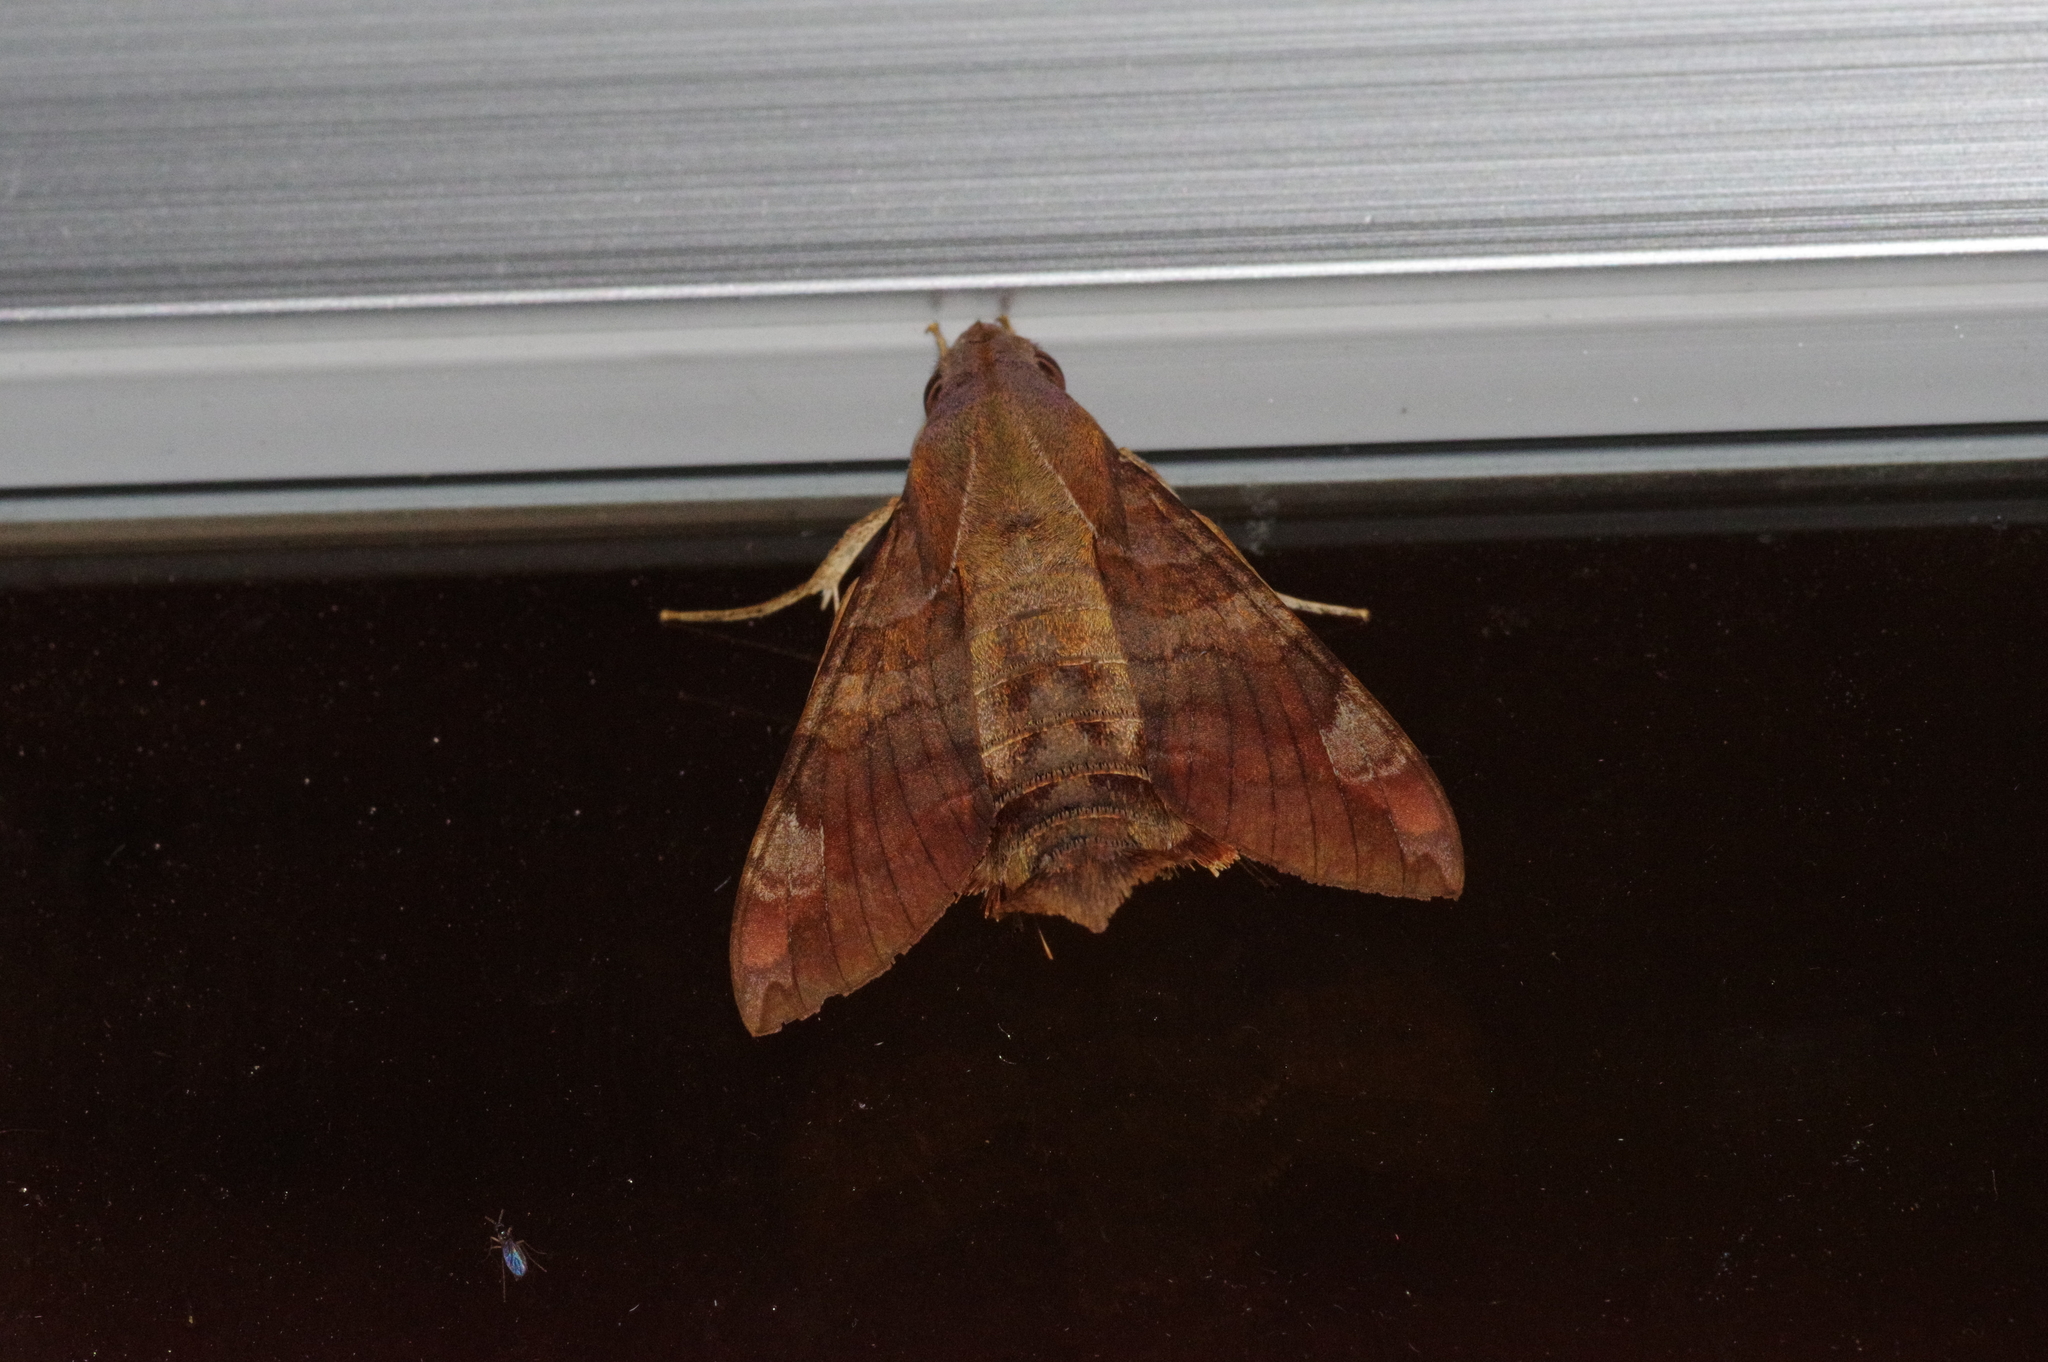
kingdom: Animalia
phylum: Arthropoda
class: Insecta
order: Lepidoptera
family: Sphingidae
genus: Macroglossum
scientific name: Macroglossum saga
